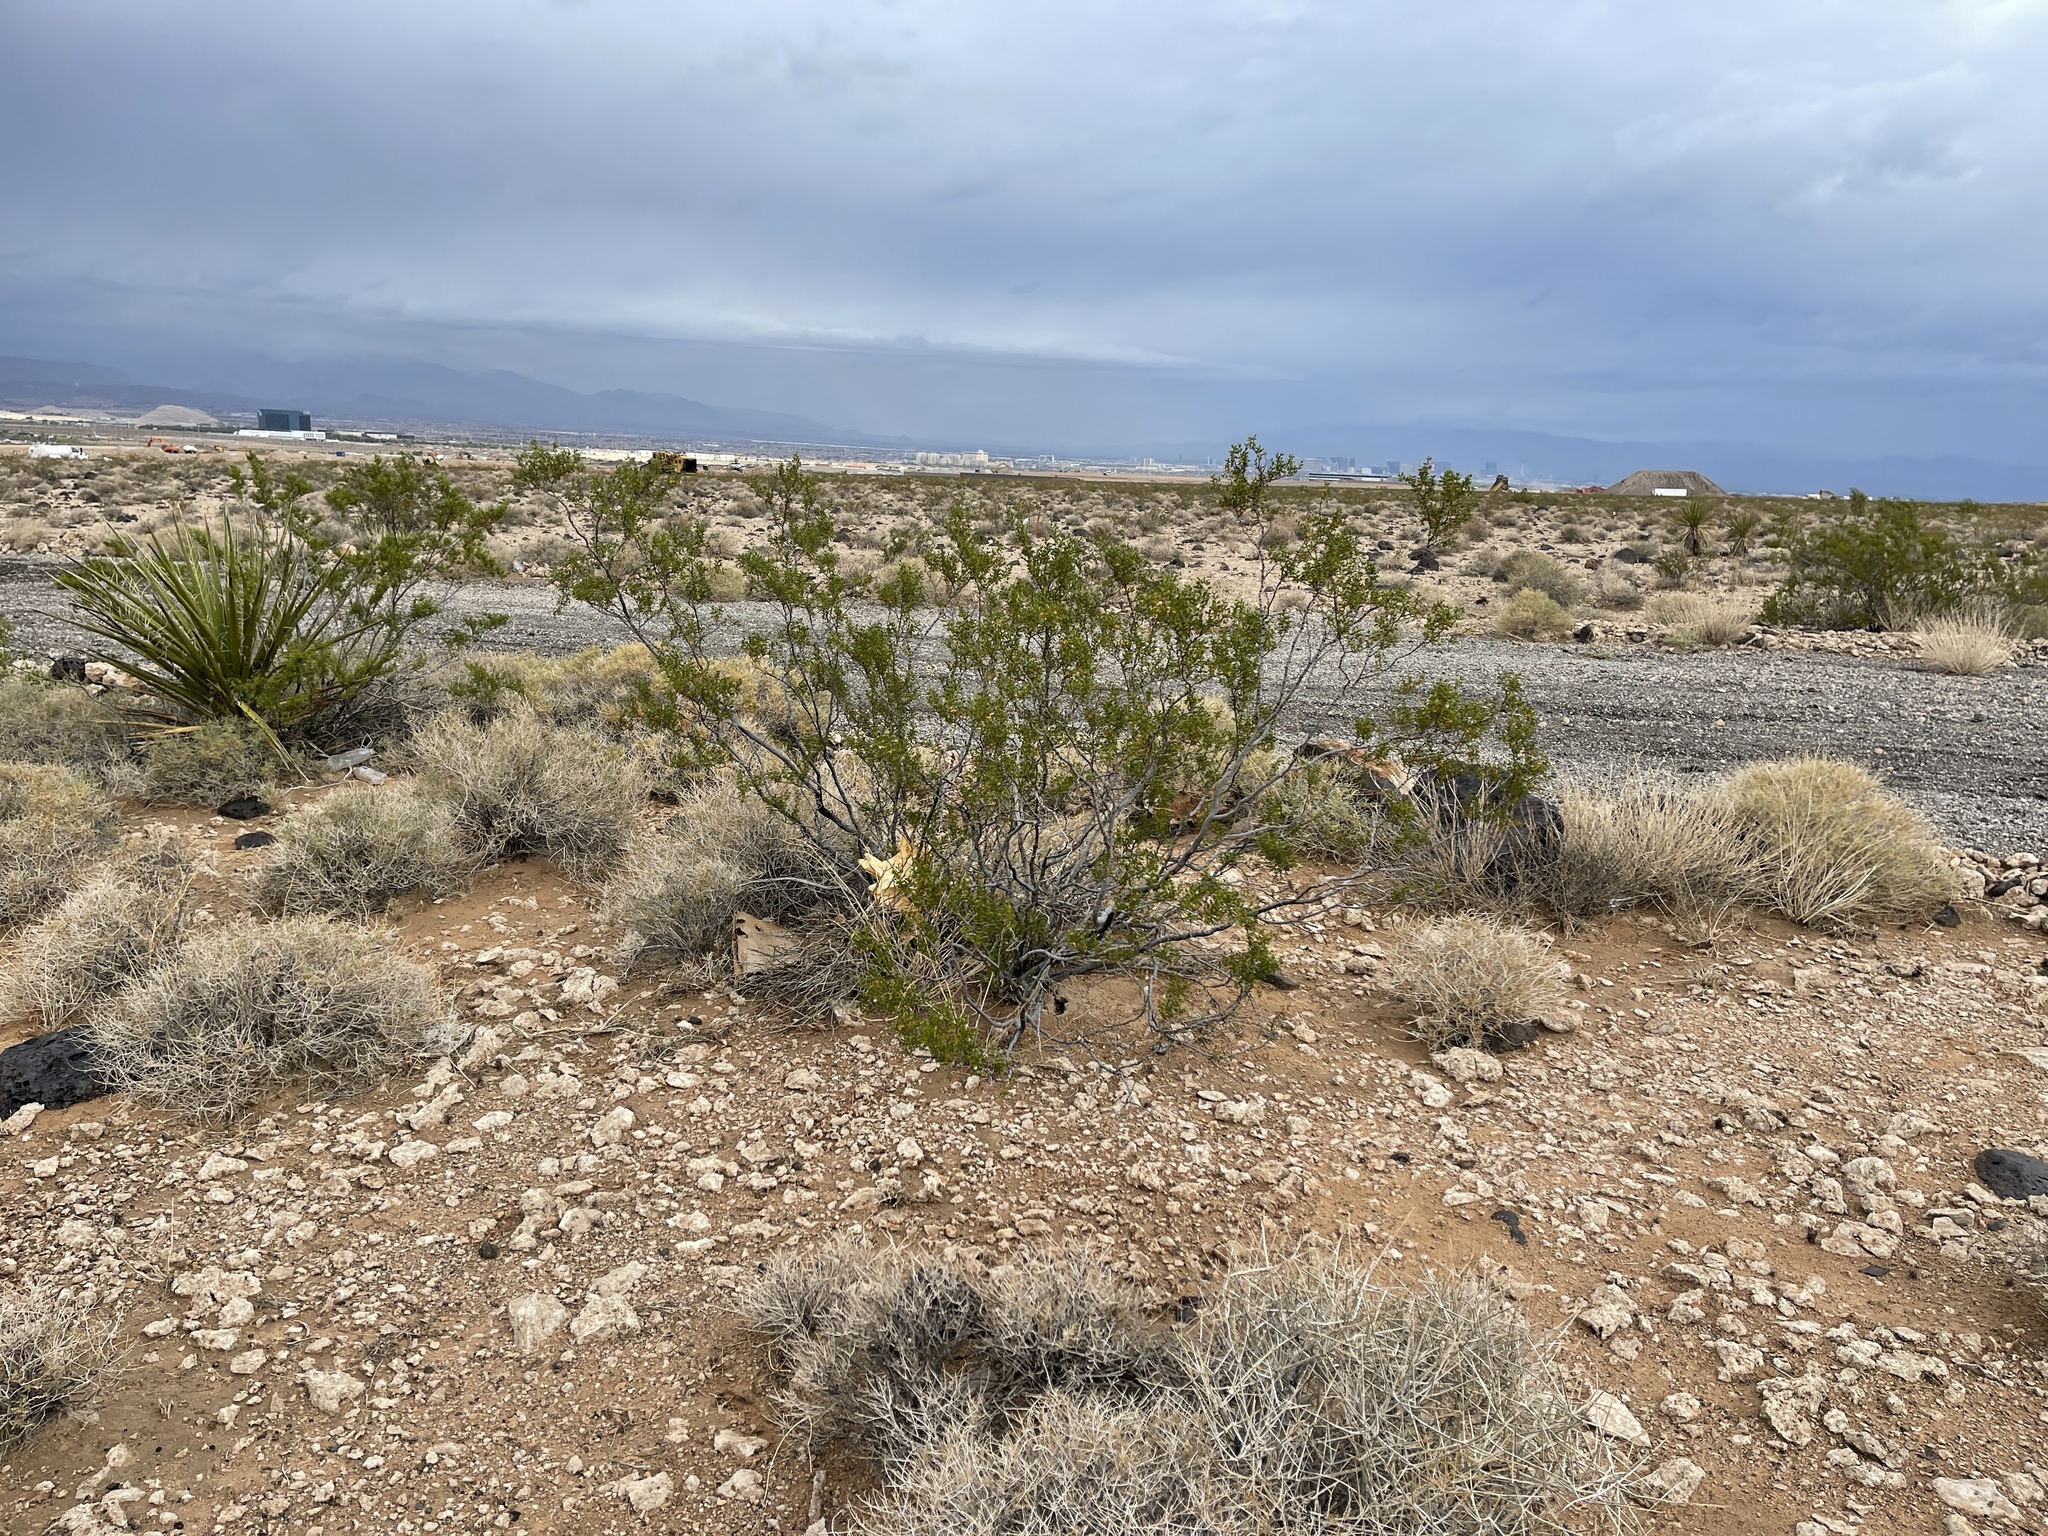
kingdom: Plantae
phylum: Tracheophyta
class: Magnoliopsida
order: Zygophyllales
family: Zygophyllaceae
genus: Larrea
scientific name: Larrea tridentata
